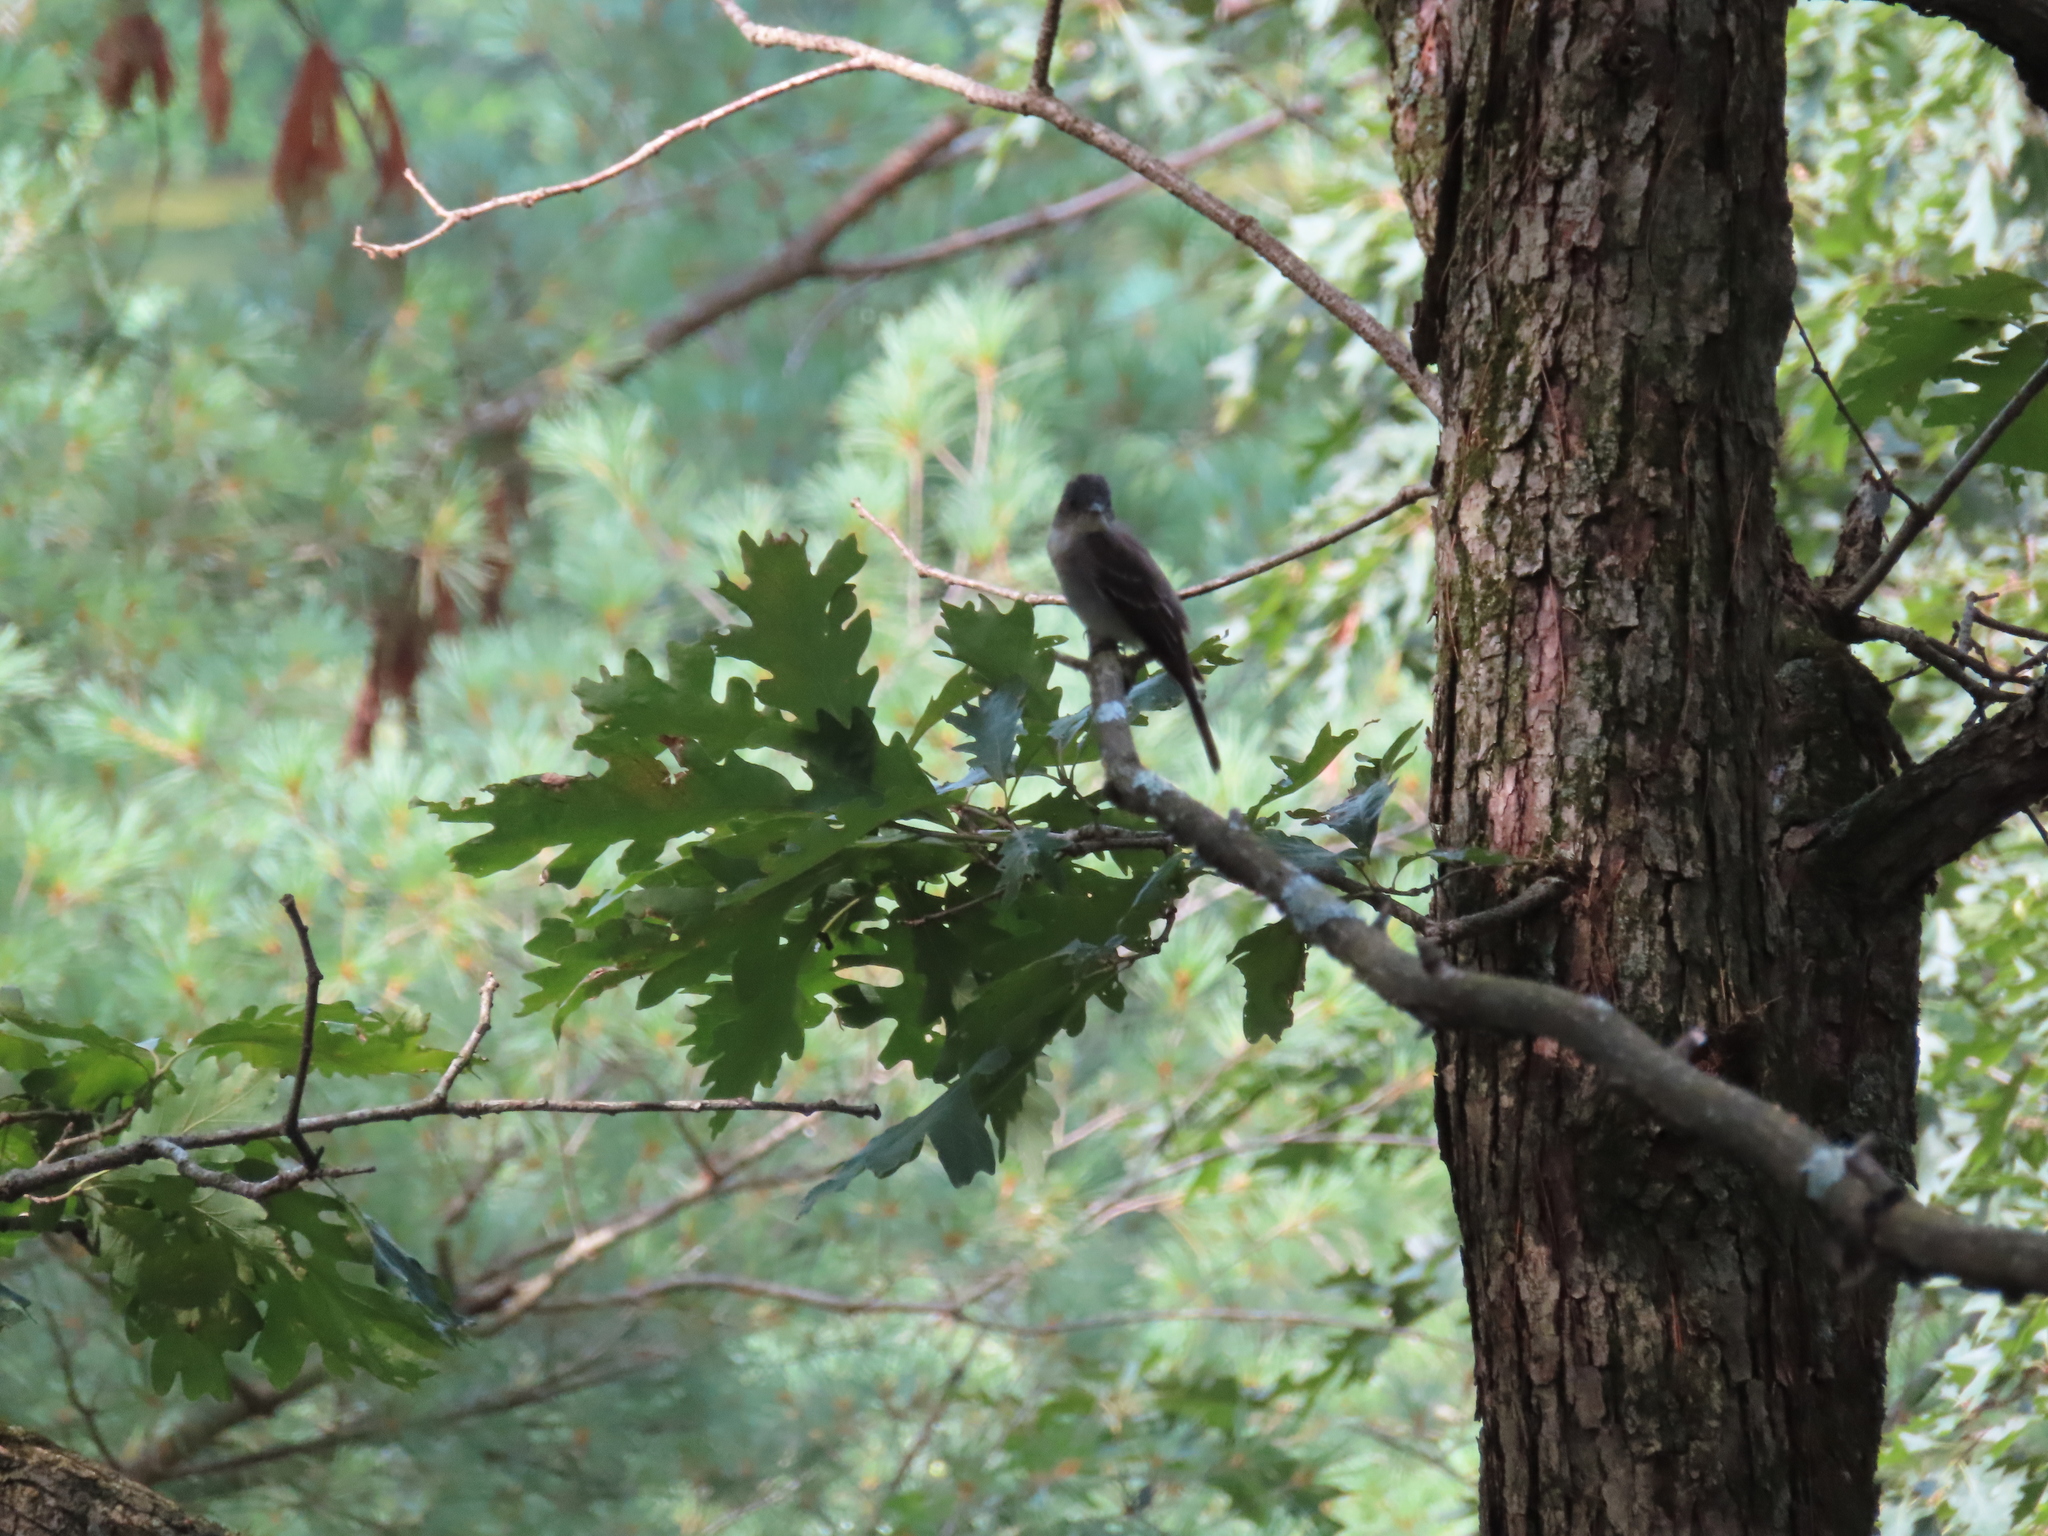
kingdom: Plantae
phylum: Tracheophyta
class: Magnoliopsida
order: Fagales
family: Fagaceae
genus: Quercus
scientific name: Quercus alba
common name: White oak
